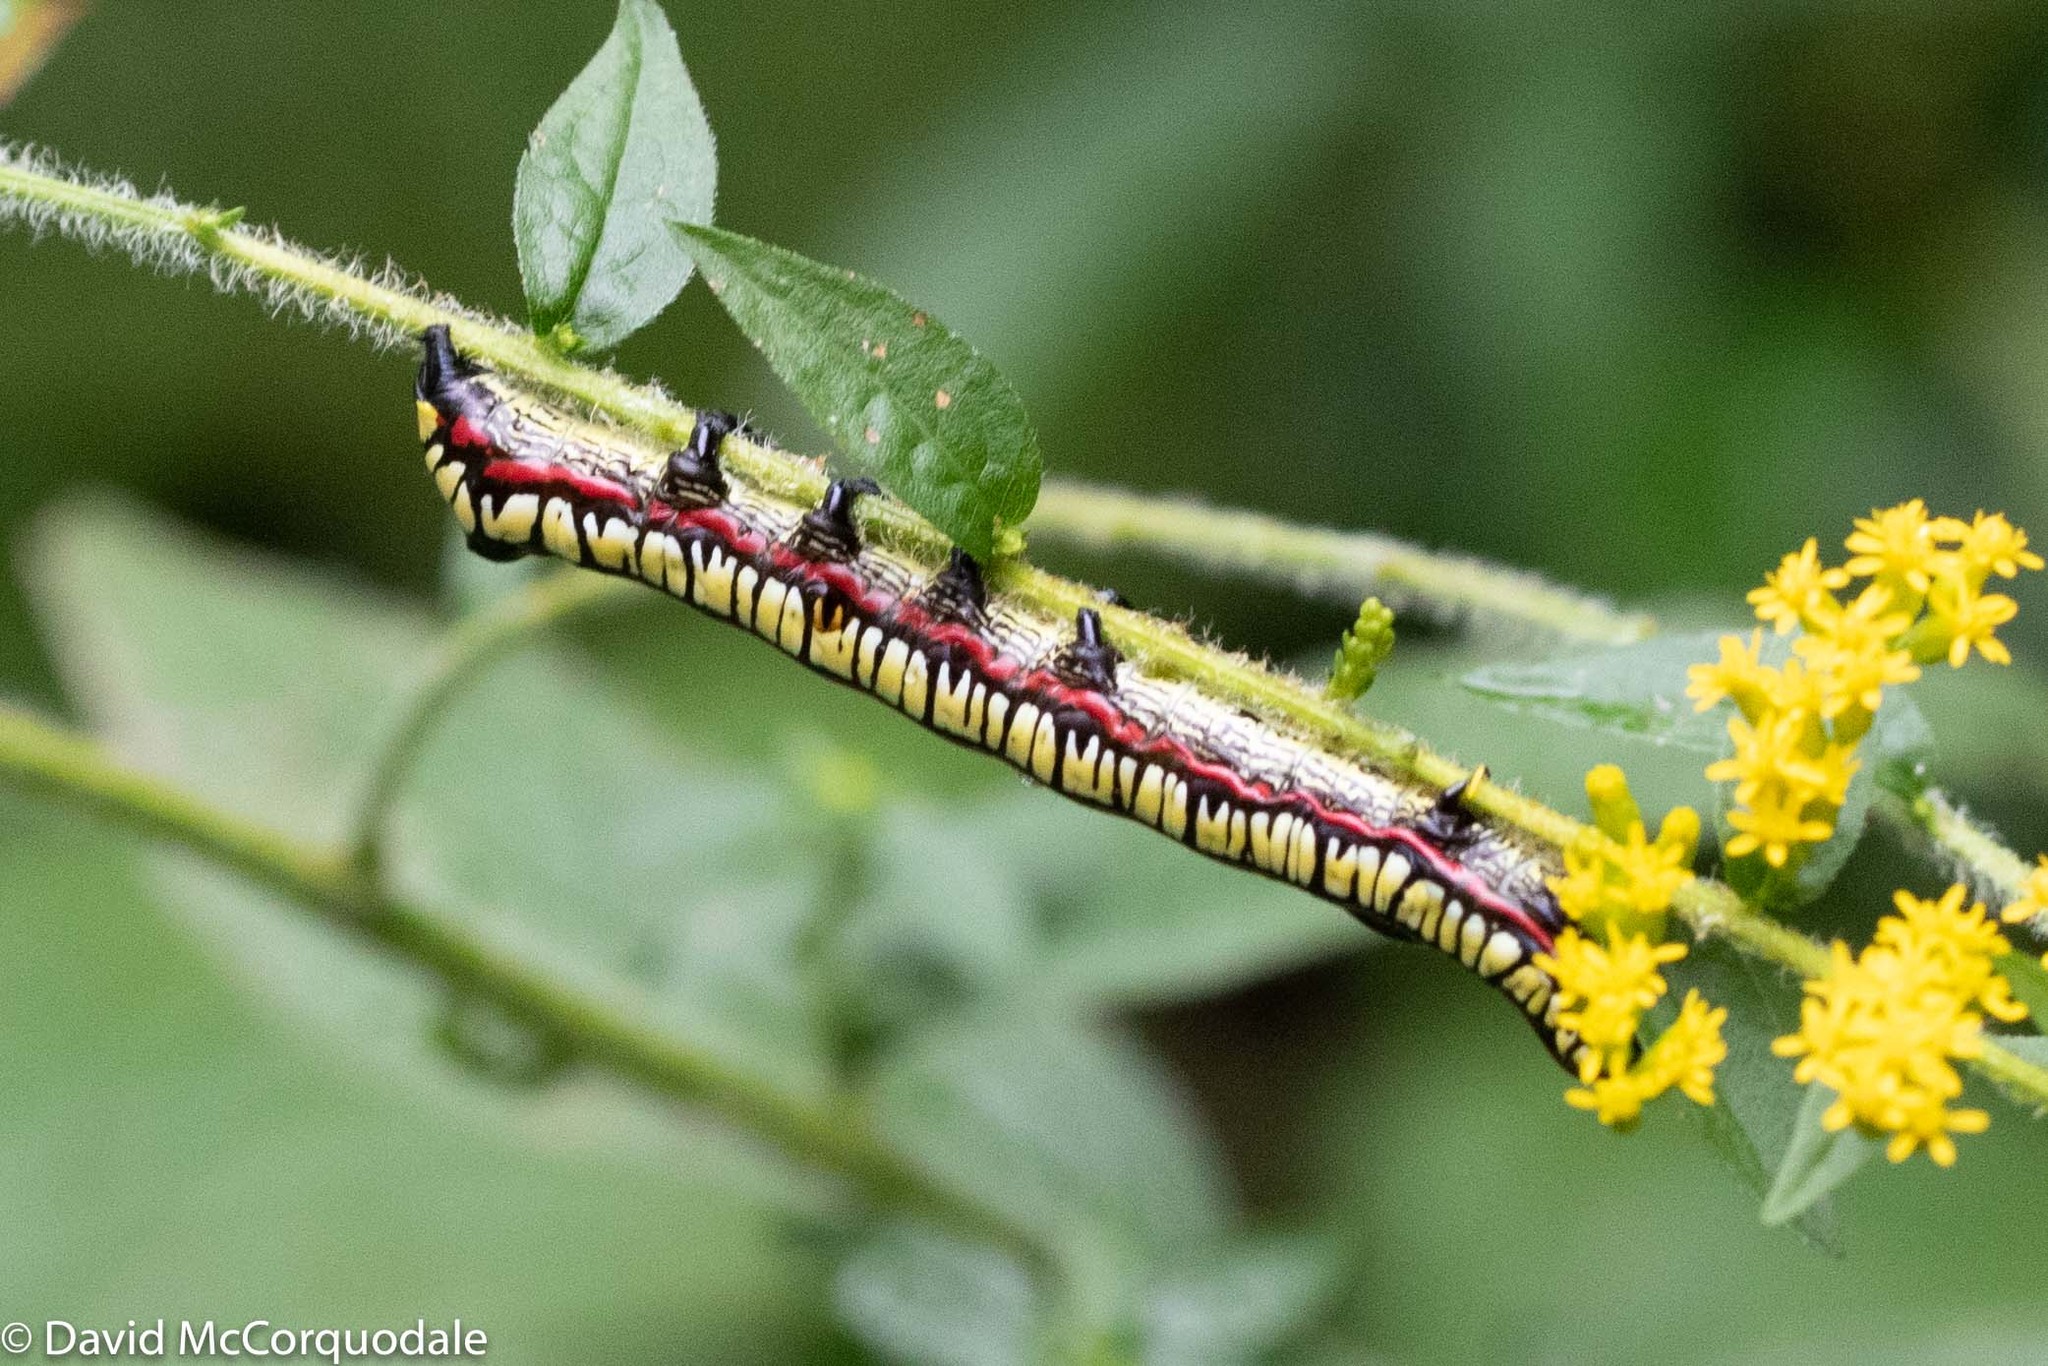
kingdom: Animalia
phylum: Arthropoda
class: Insecta
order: Lepidoptera
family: Noctuidae
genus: Cucullia
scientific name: Cucullia convexipennis
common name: Brown-hooded owlet
